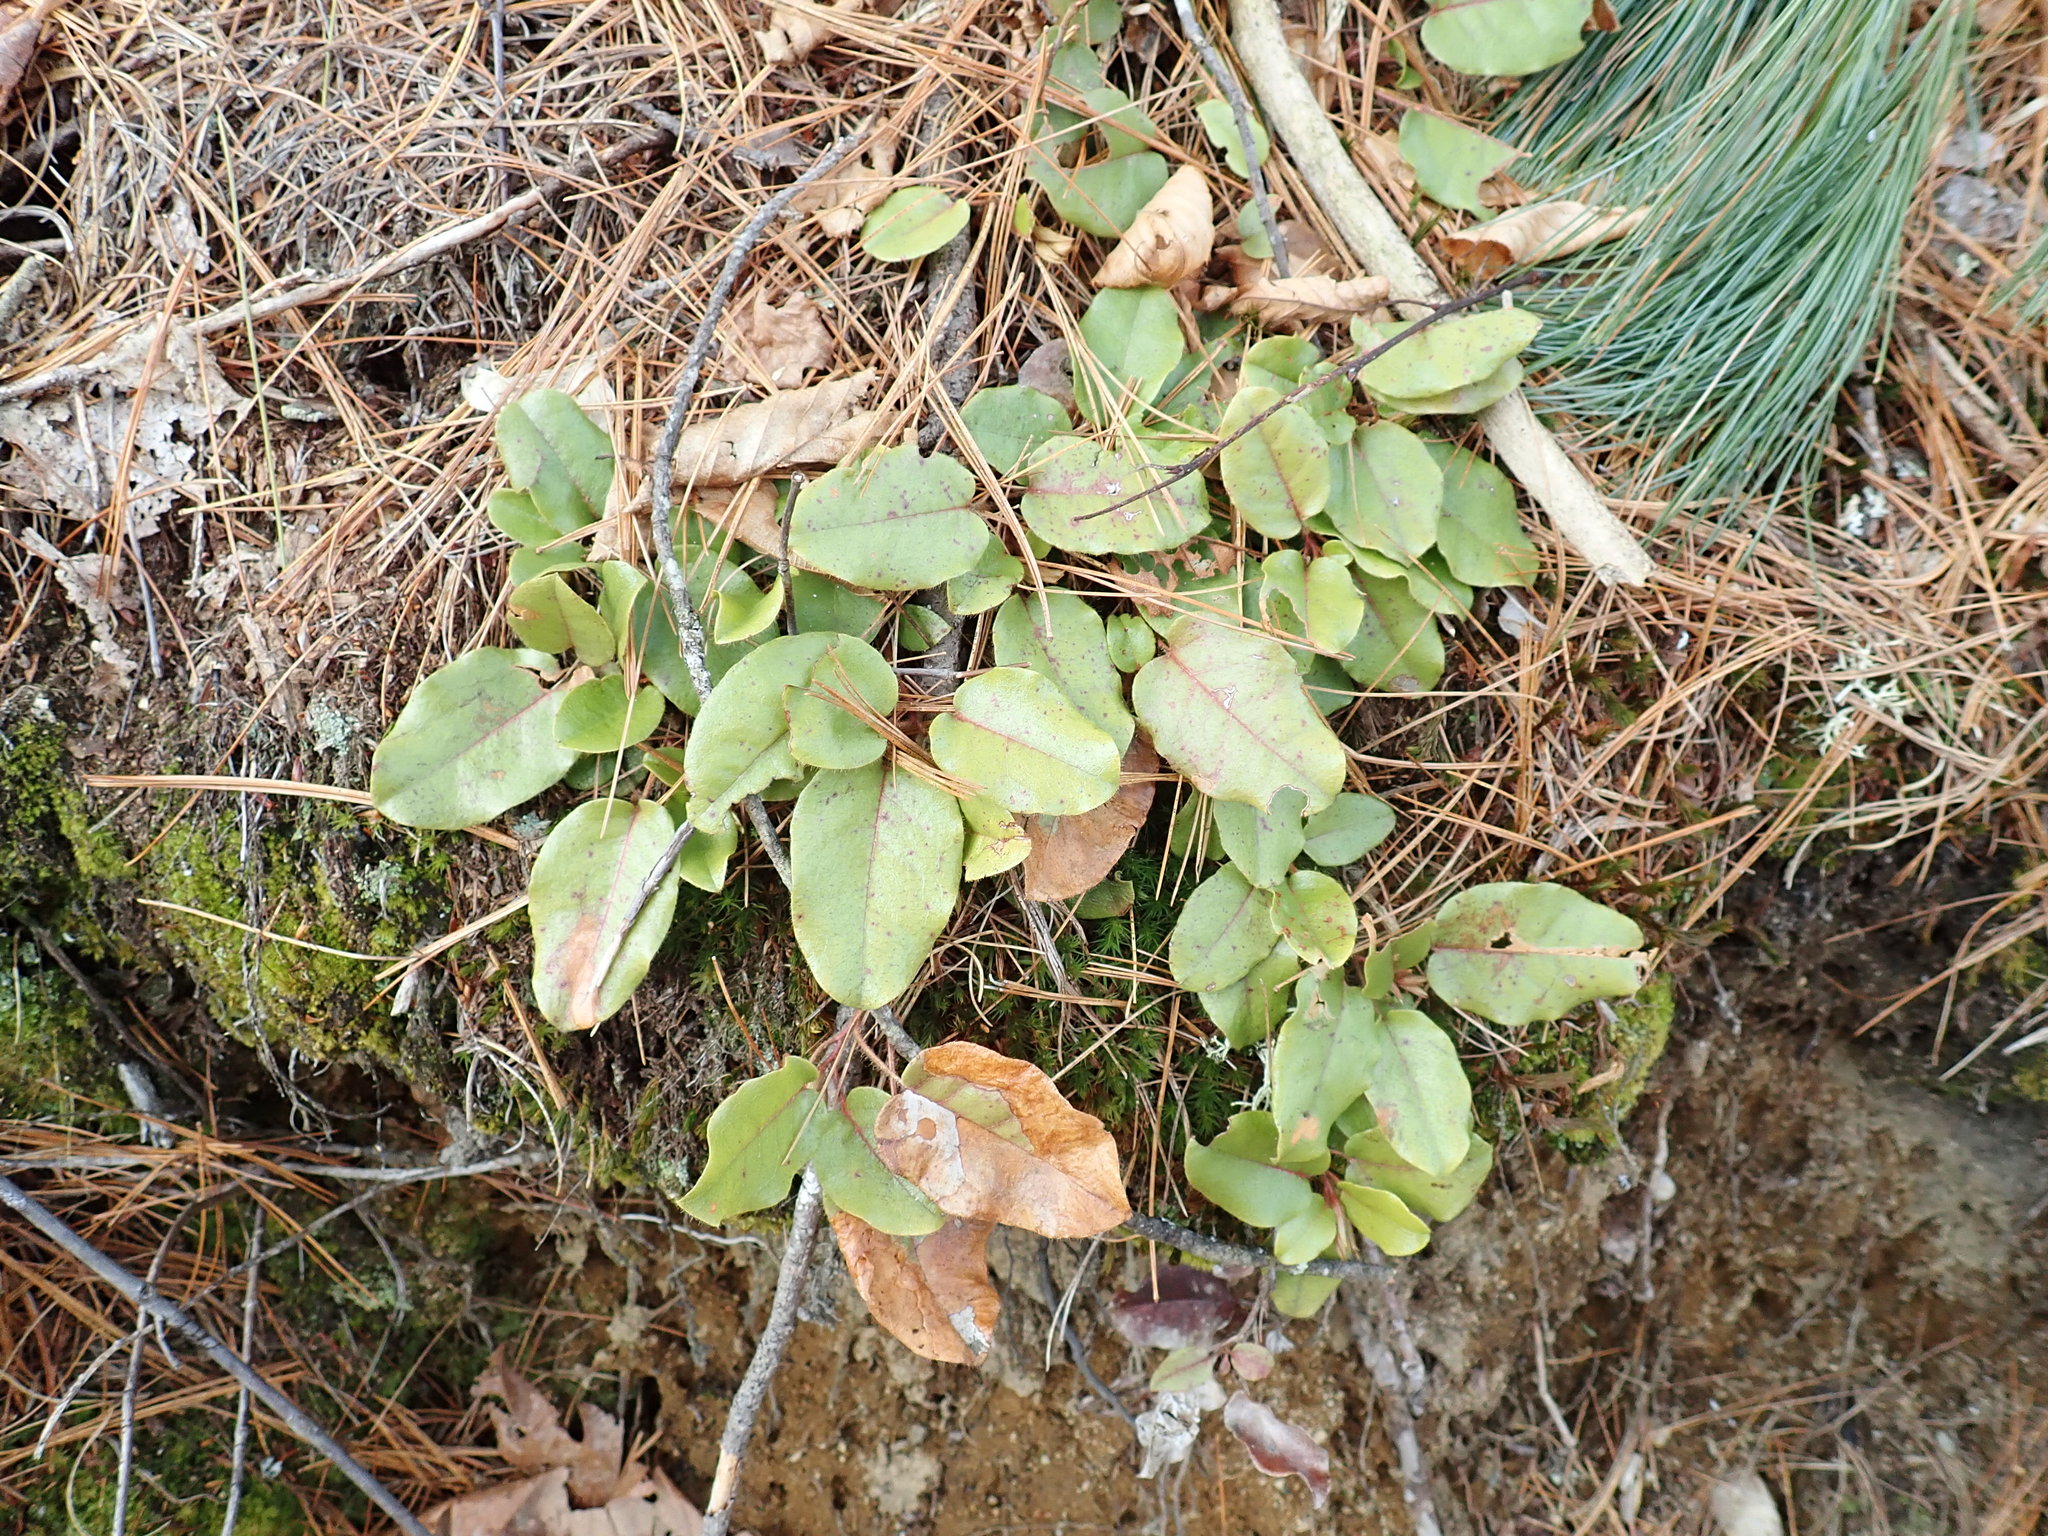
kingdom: Plantae
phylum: Tracheophyta
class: Magnoliopsida
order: Ericales
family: Ericaceae
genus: Epigaea
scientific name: Epigaea repens
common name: Gravelroot
